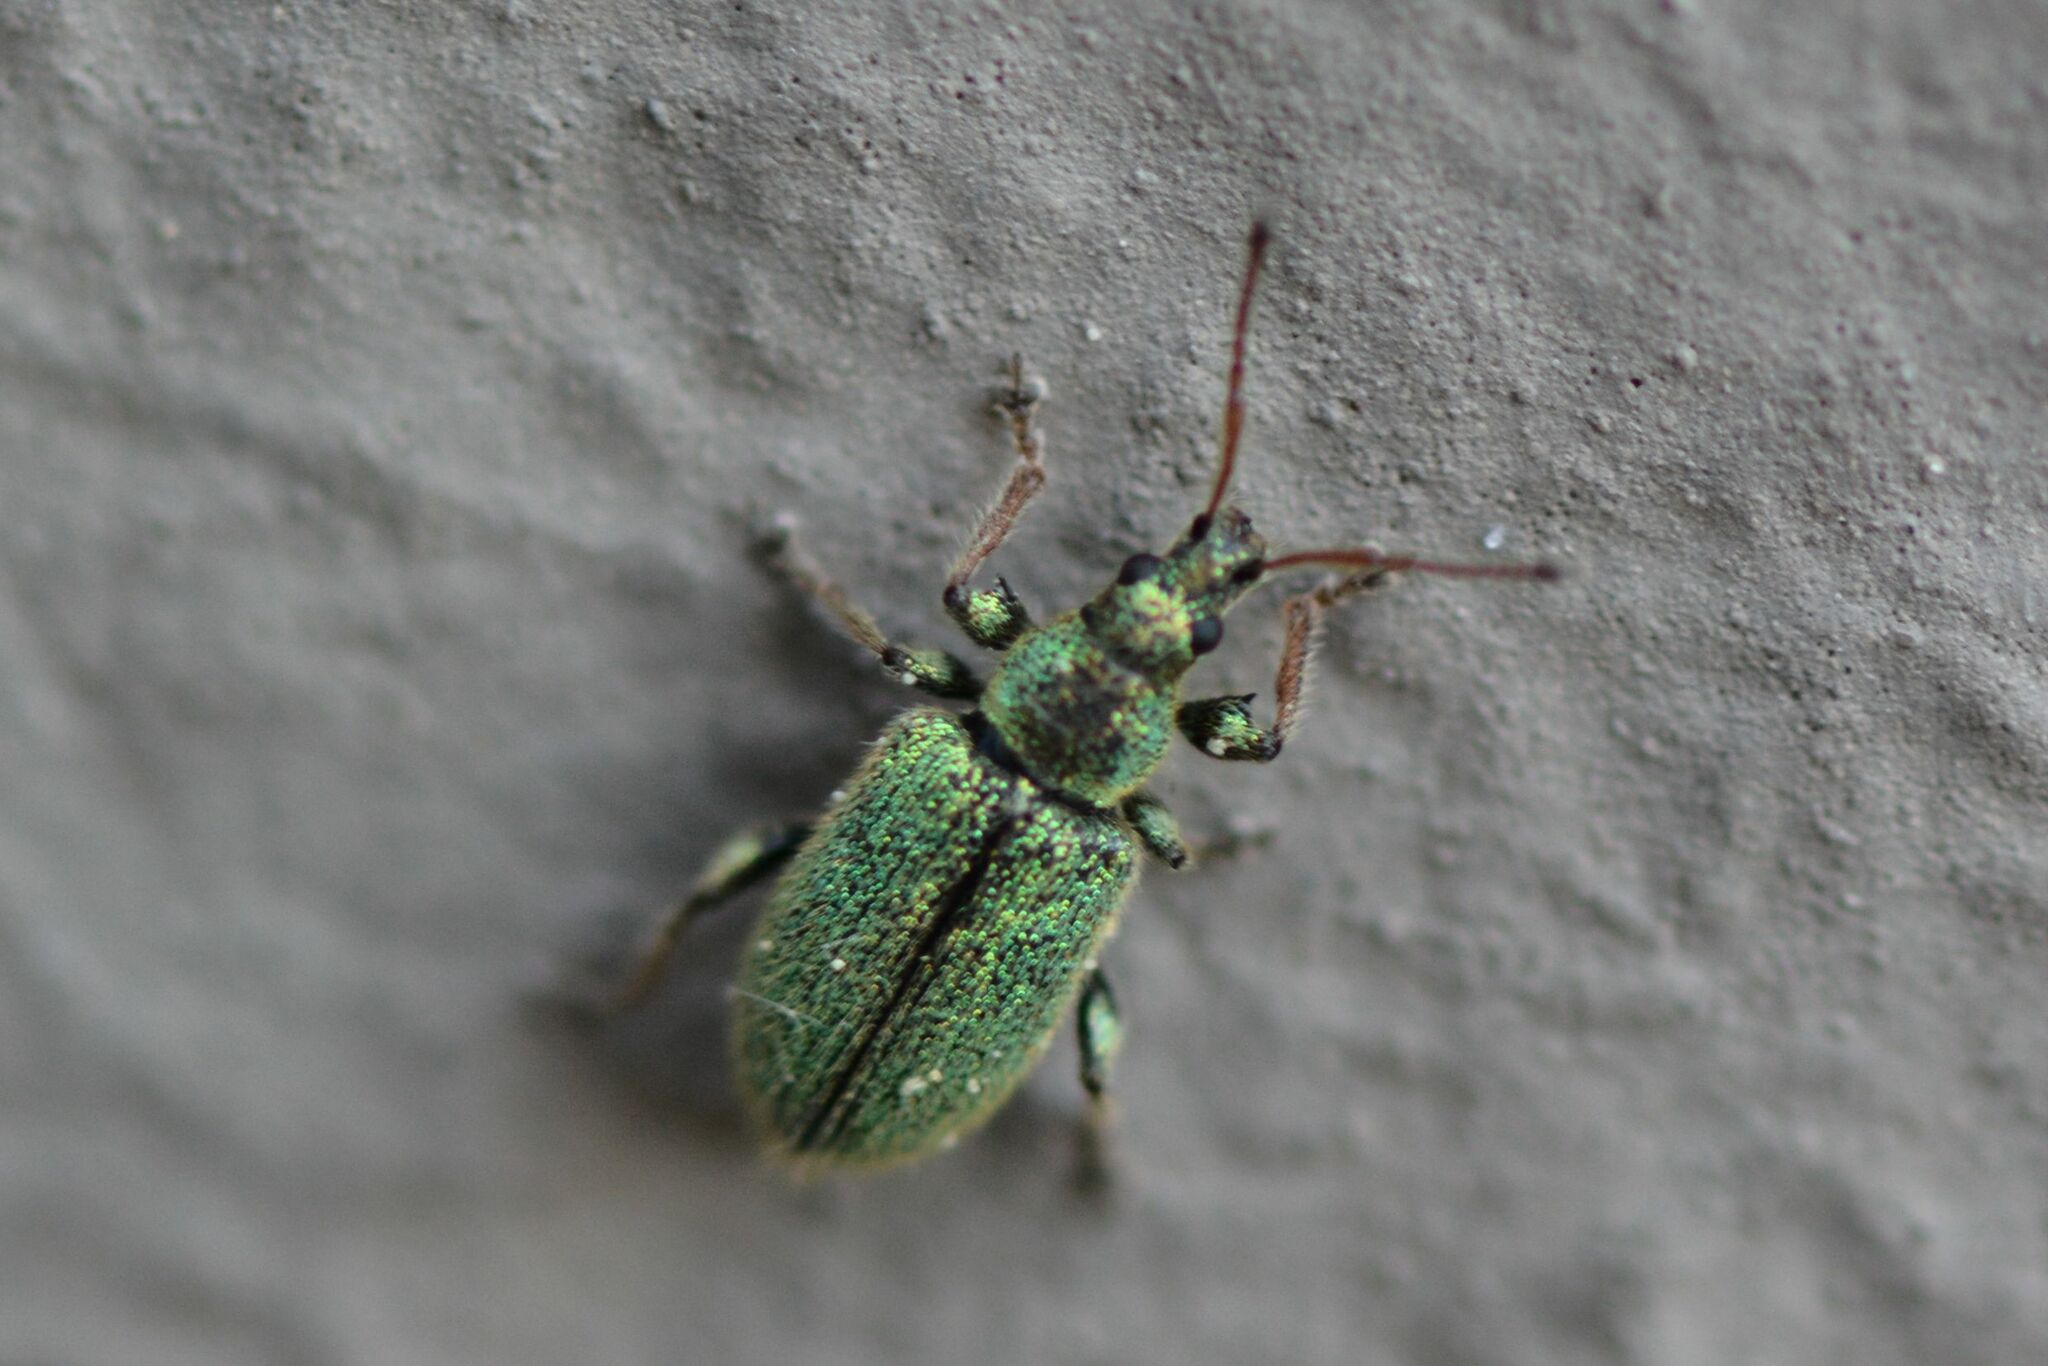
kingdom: Animalia
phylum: Arthropoda
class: Insecta
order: Coleoptera
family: Curculionidae
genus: Phyllobius
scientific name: Phyllobius betulinus
